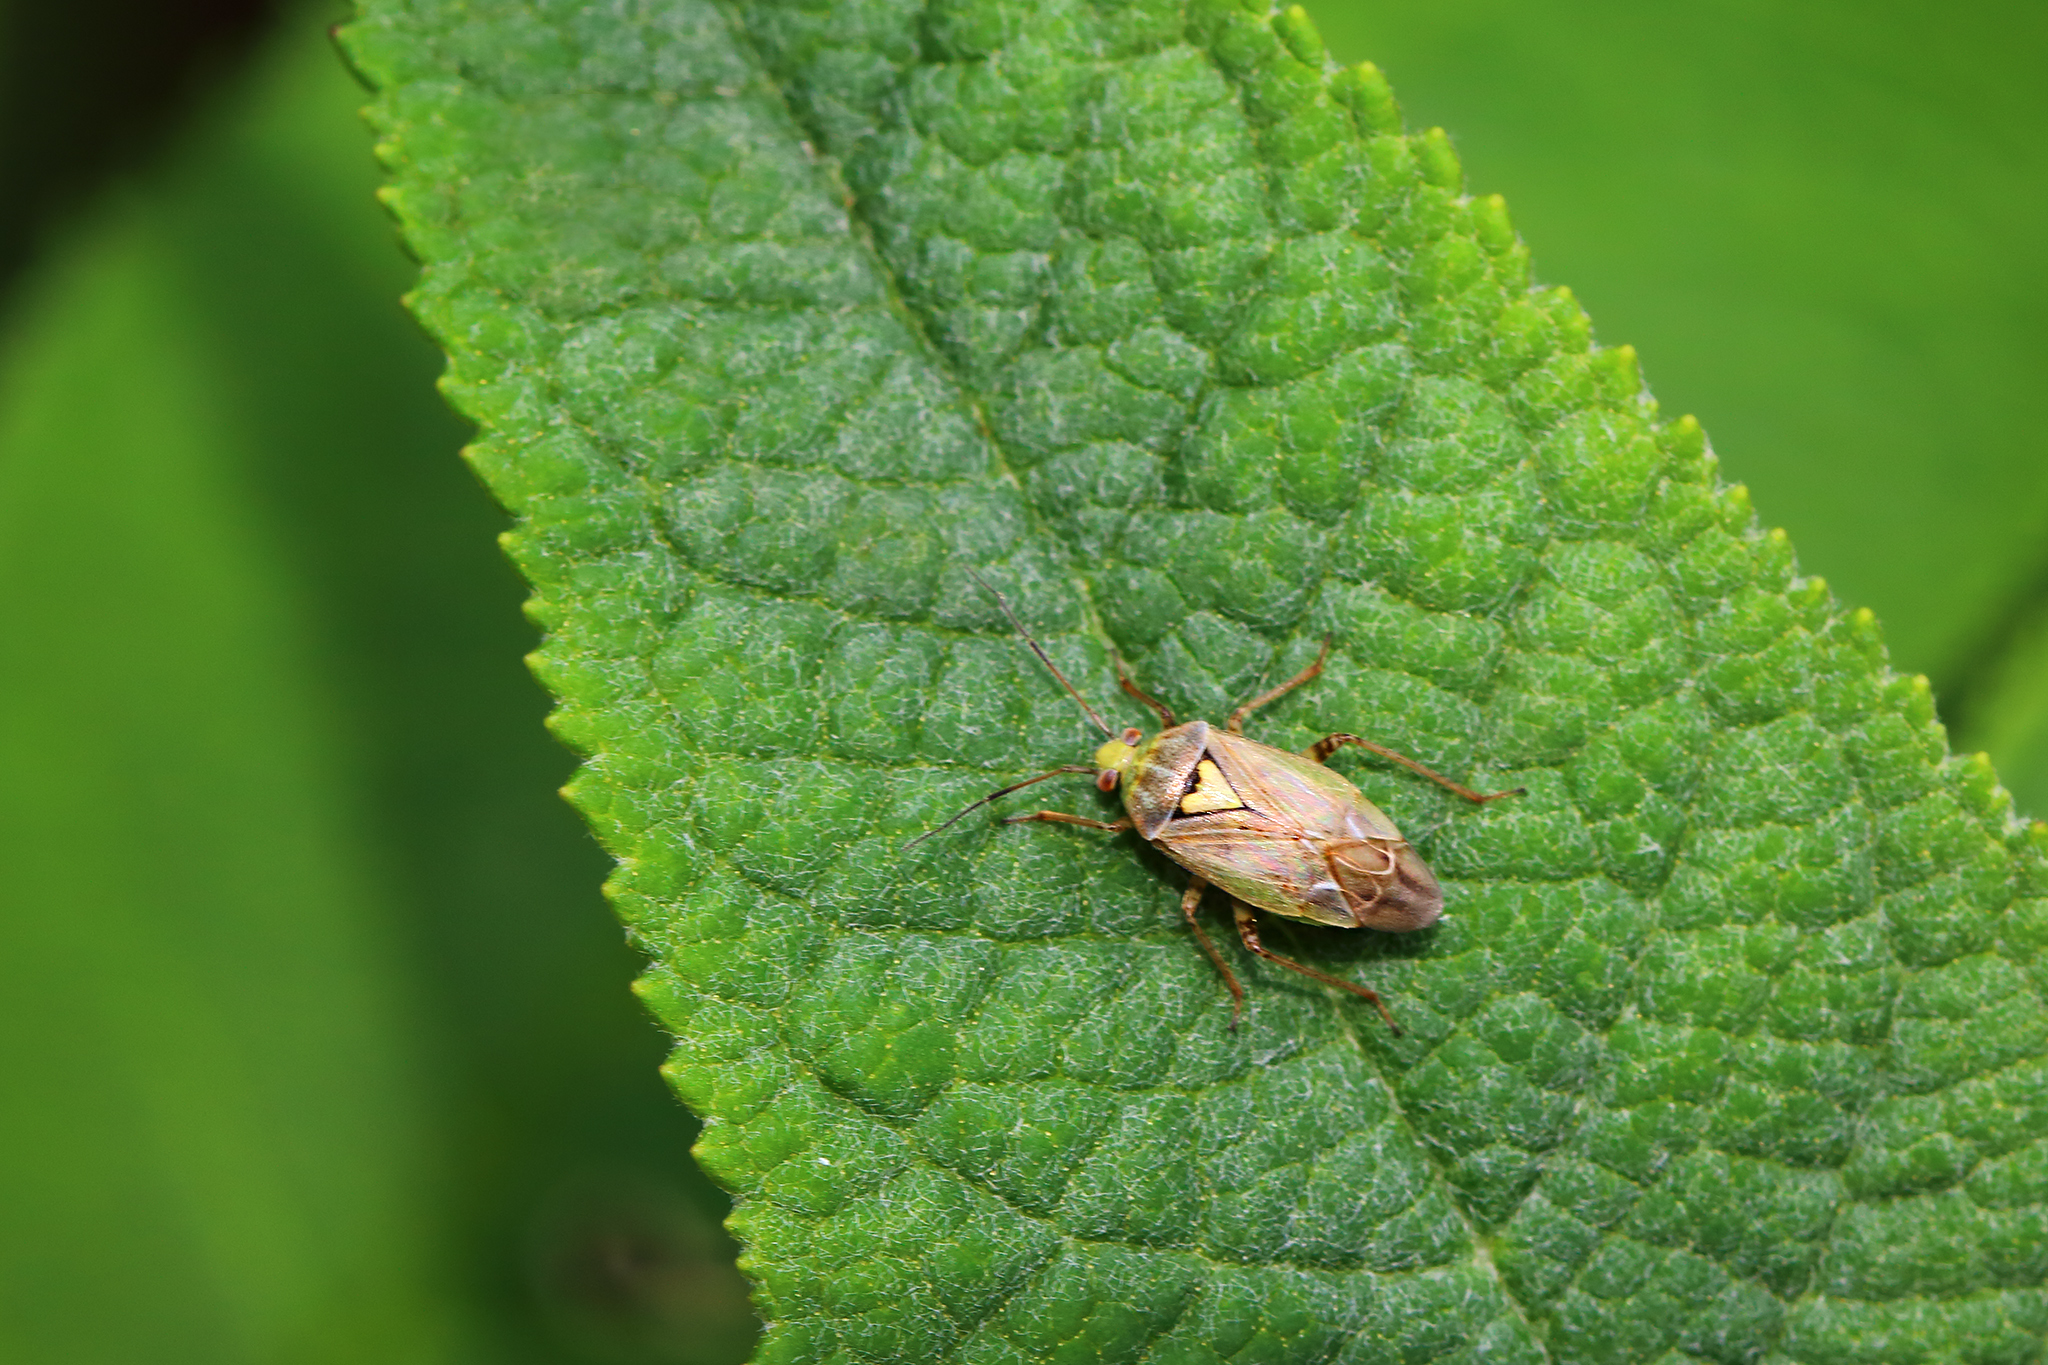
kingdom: Animalia
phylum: Arthropoda
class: Insecta
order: Hemiptera
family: Miridae
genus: Lygus
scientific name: Lygus rugulipennis
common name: European tarnished plant bug
